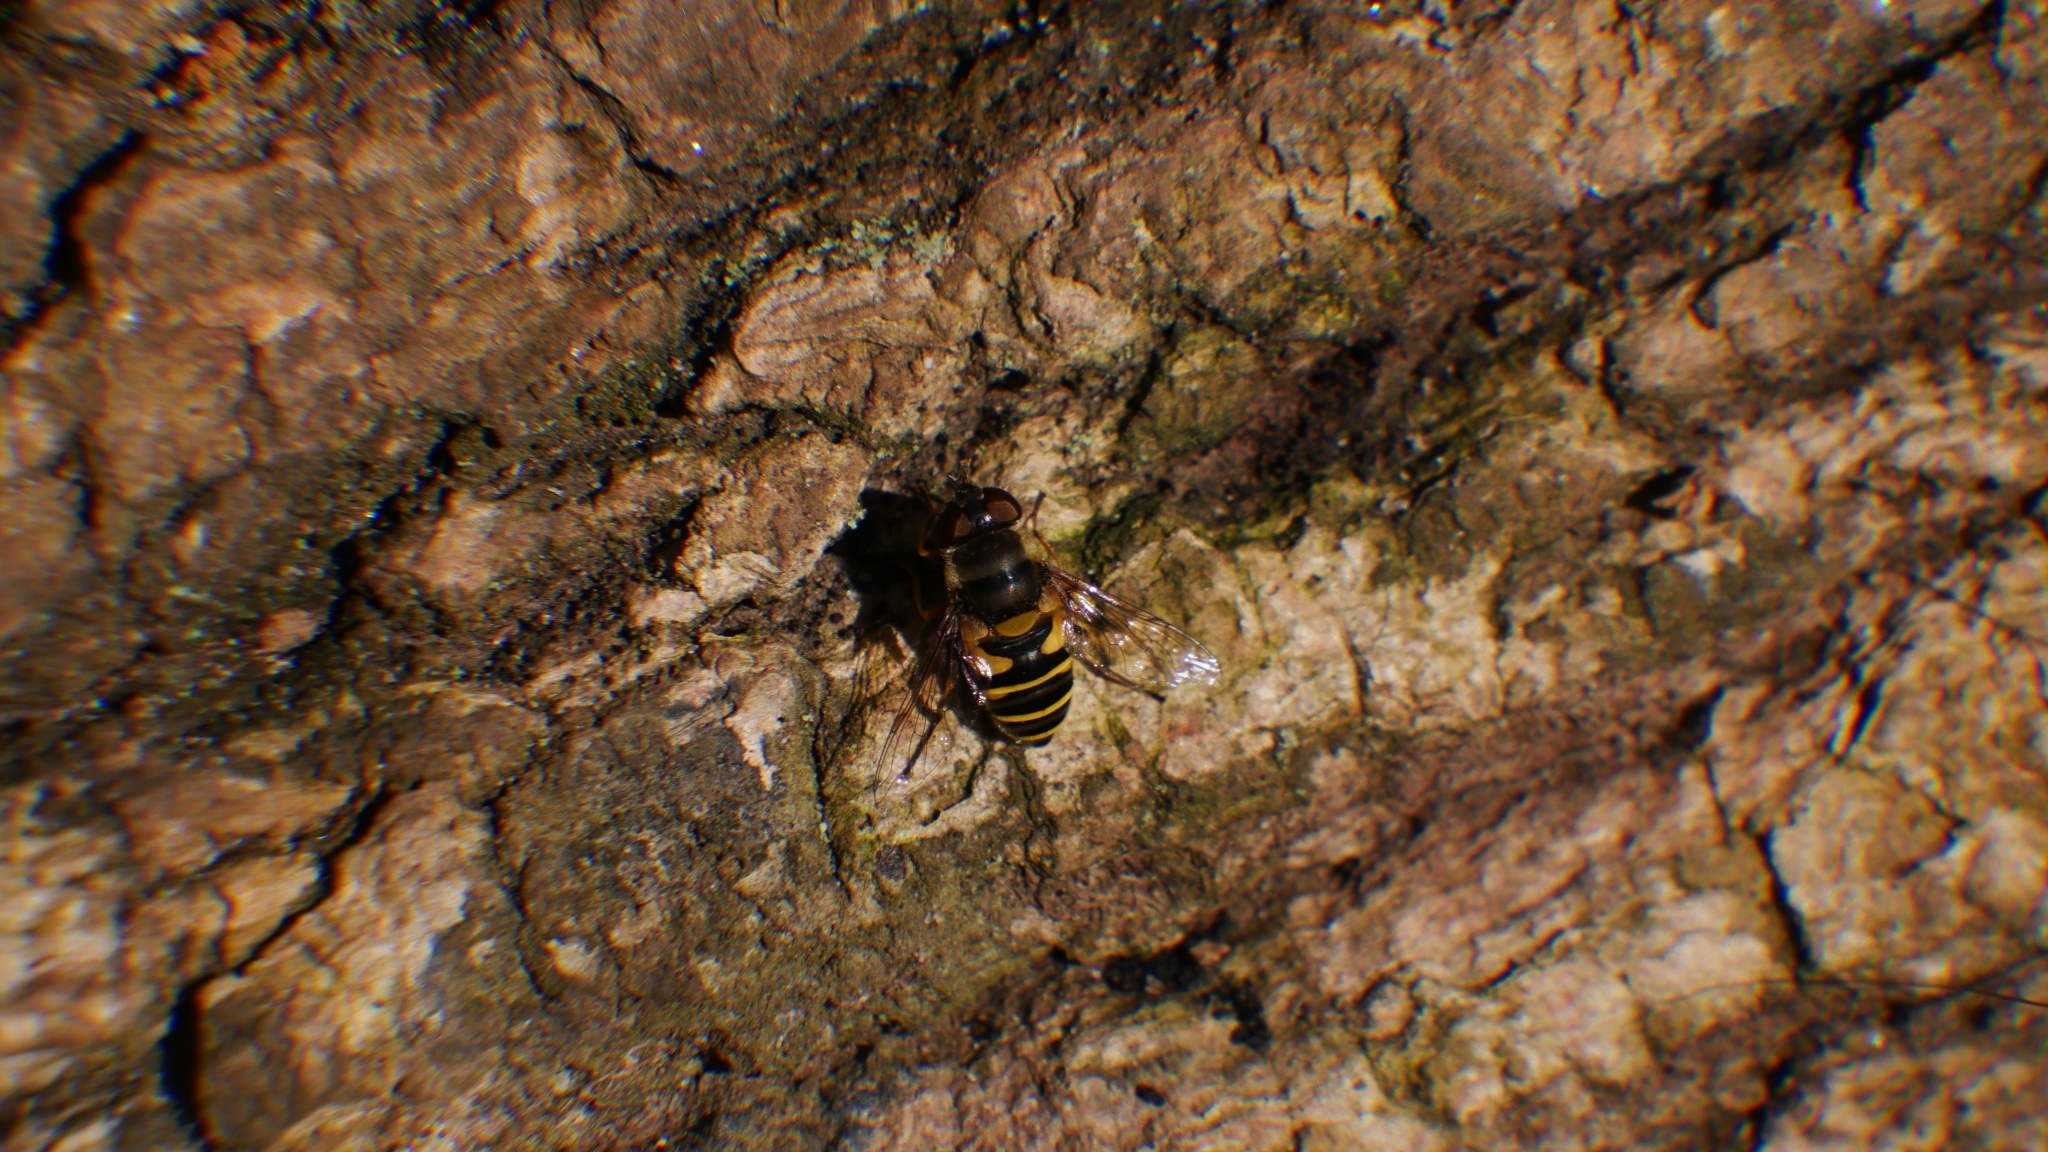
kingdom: Animalia
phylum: Arthropoda
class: Insecta
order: Diptera
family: Syrphidae
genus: Eristalis
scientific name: Eristalis transversa
